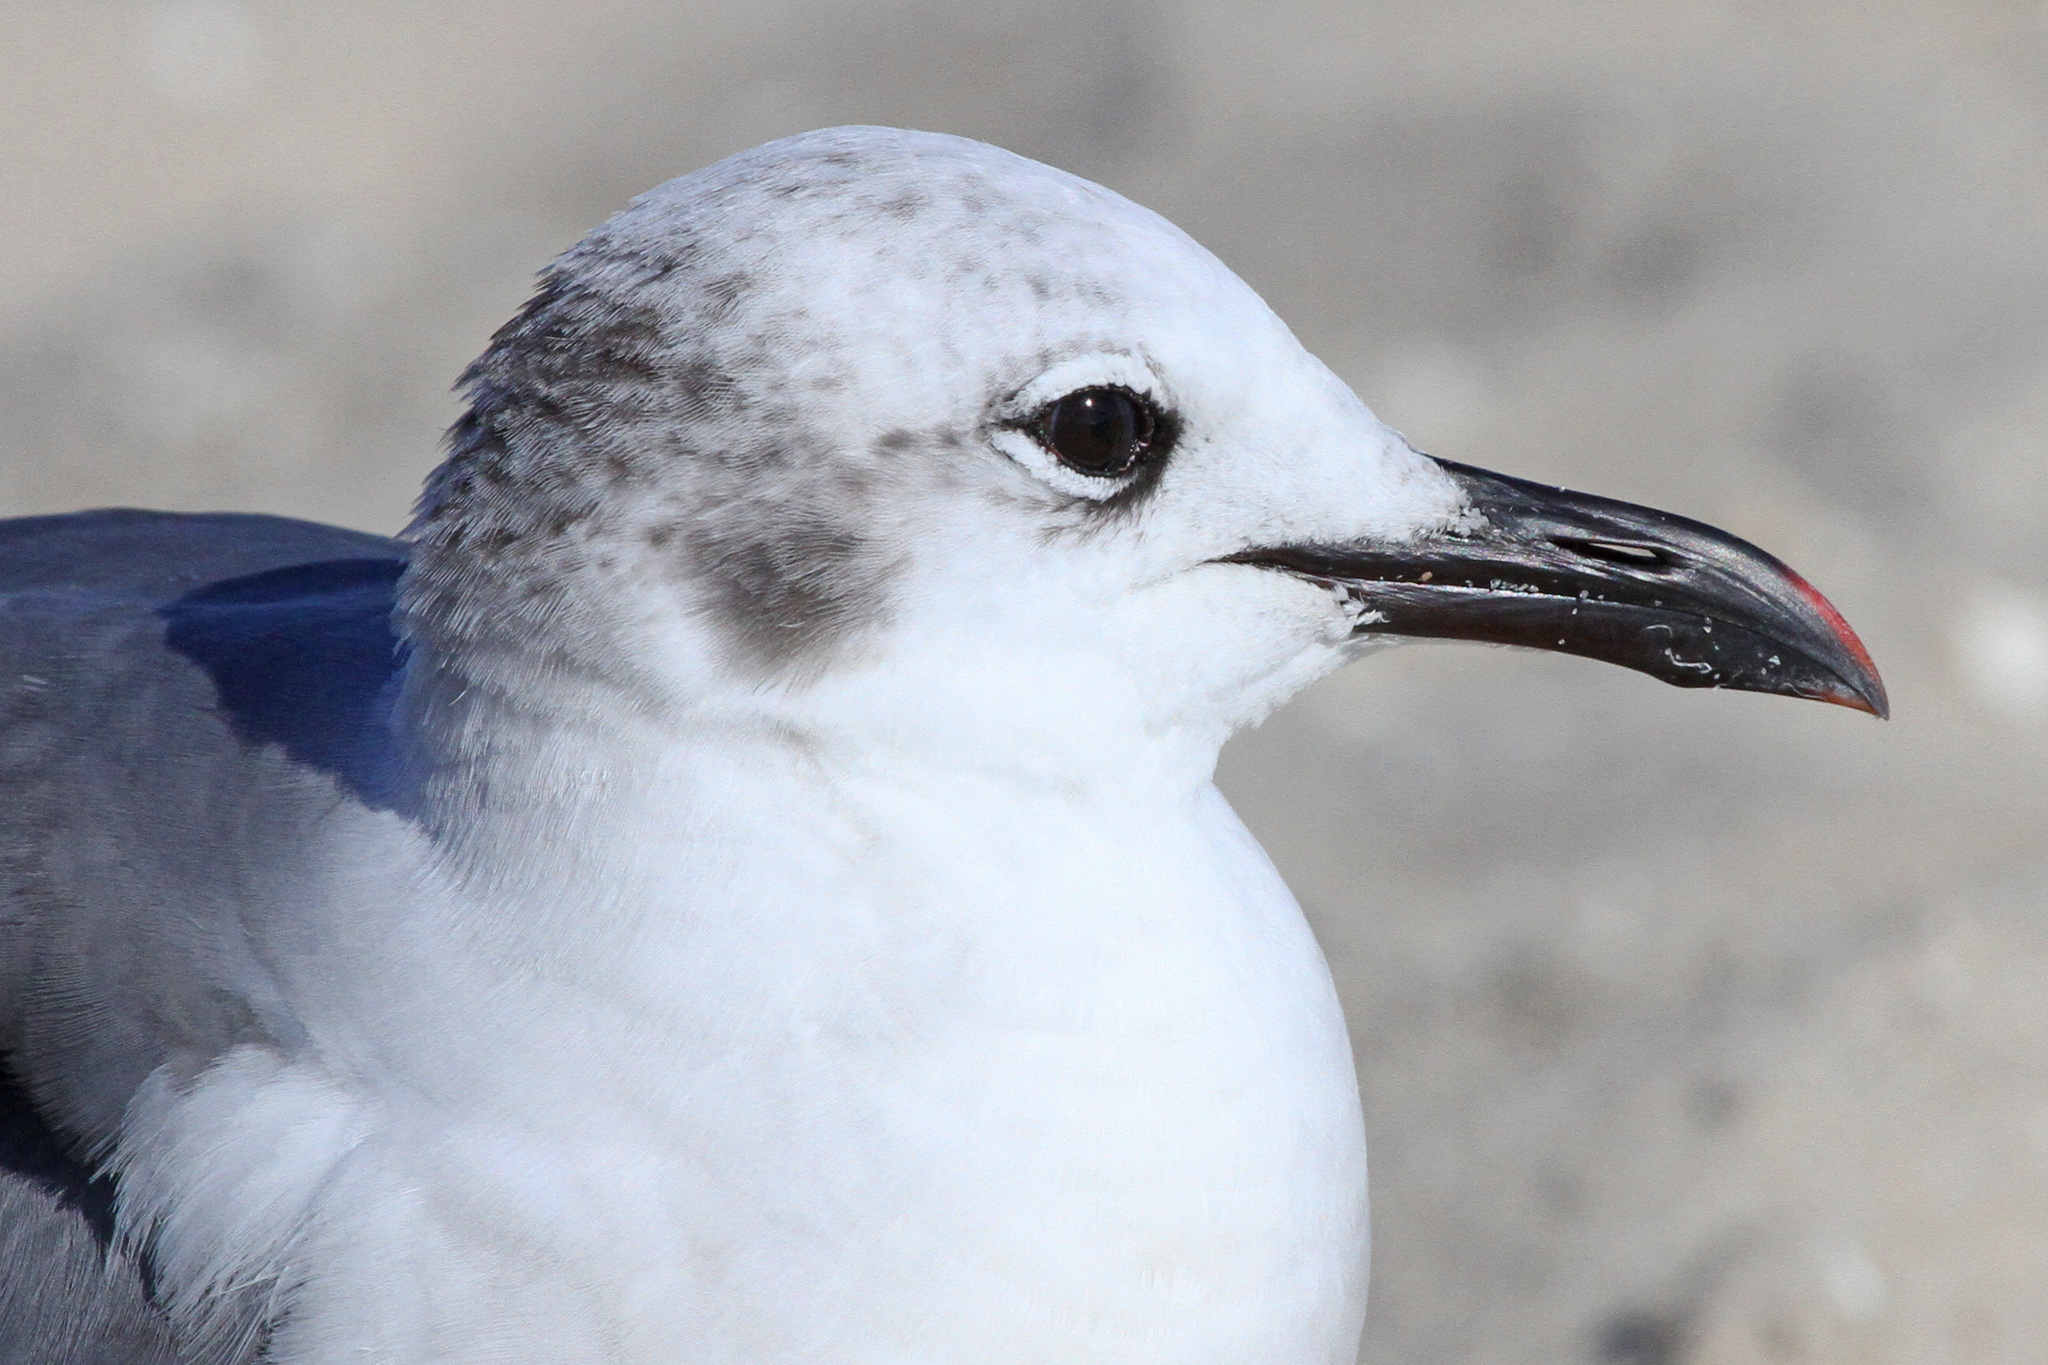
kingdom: Animalia
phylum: Chordata
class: Aves
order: Charadriiformes
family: Laridae
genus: Leucophaeus
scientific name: Leucophaeus atricilla
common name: Laughing gull
